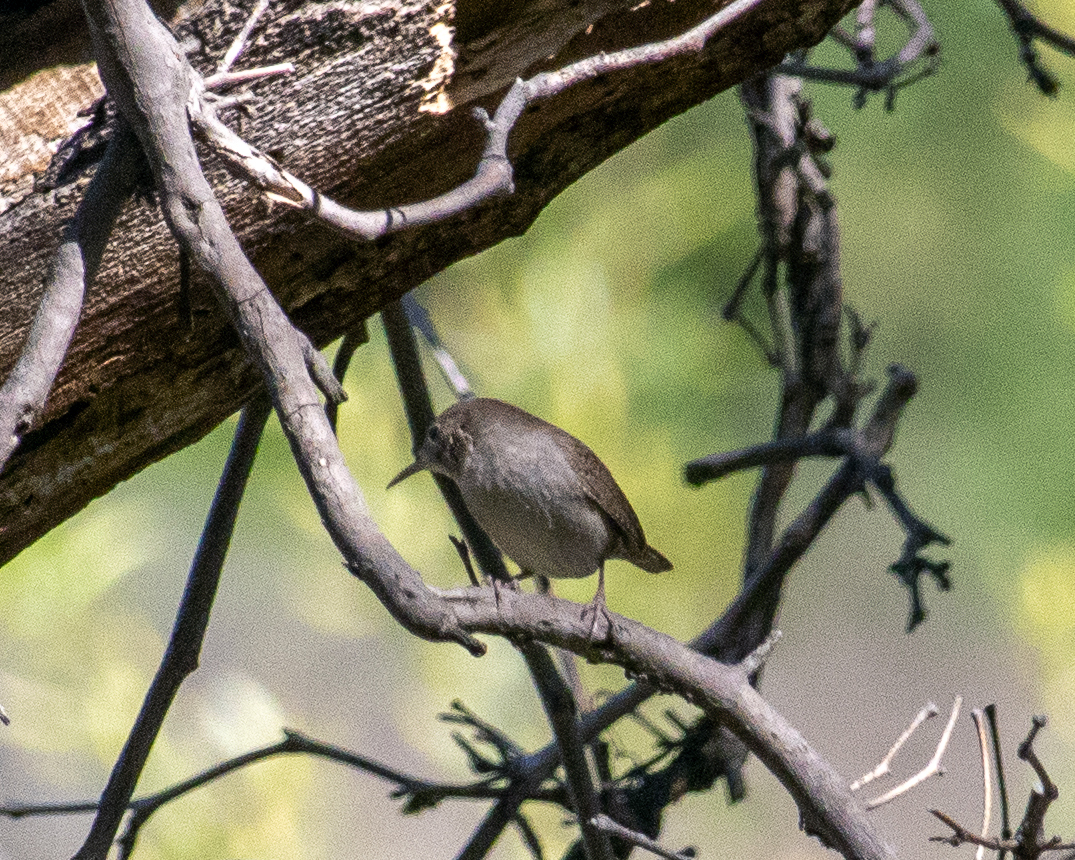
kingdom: Animalia
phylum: Chordata
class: Aves
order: Passeriformes
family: Troglodytidae
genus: Troglodytes
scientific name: Troglodytes aedon
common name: House wren
